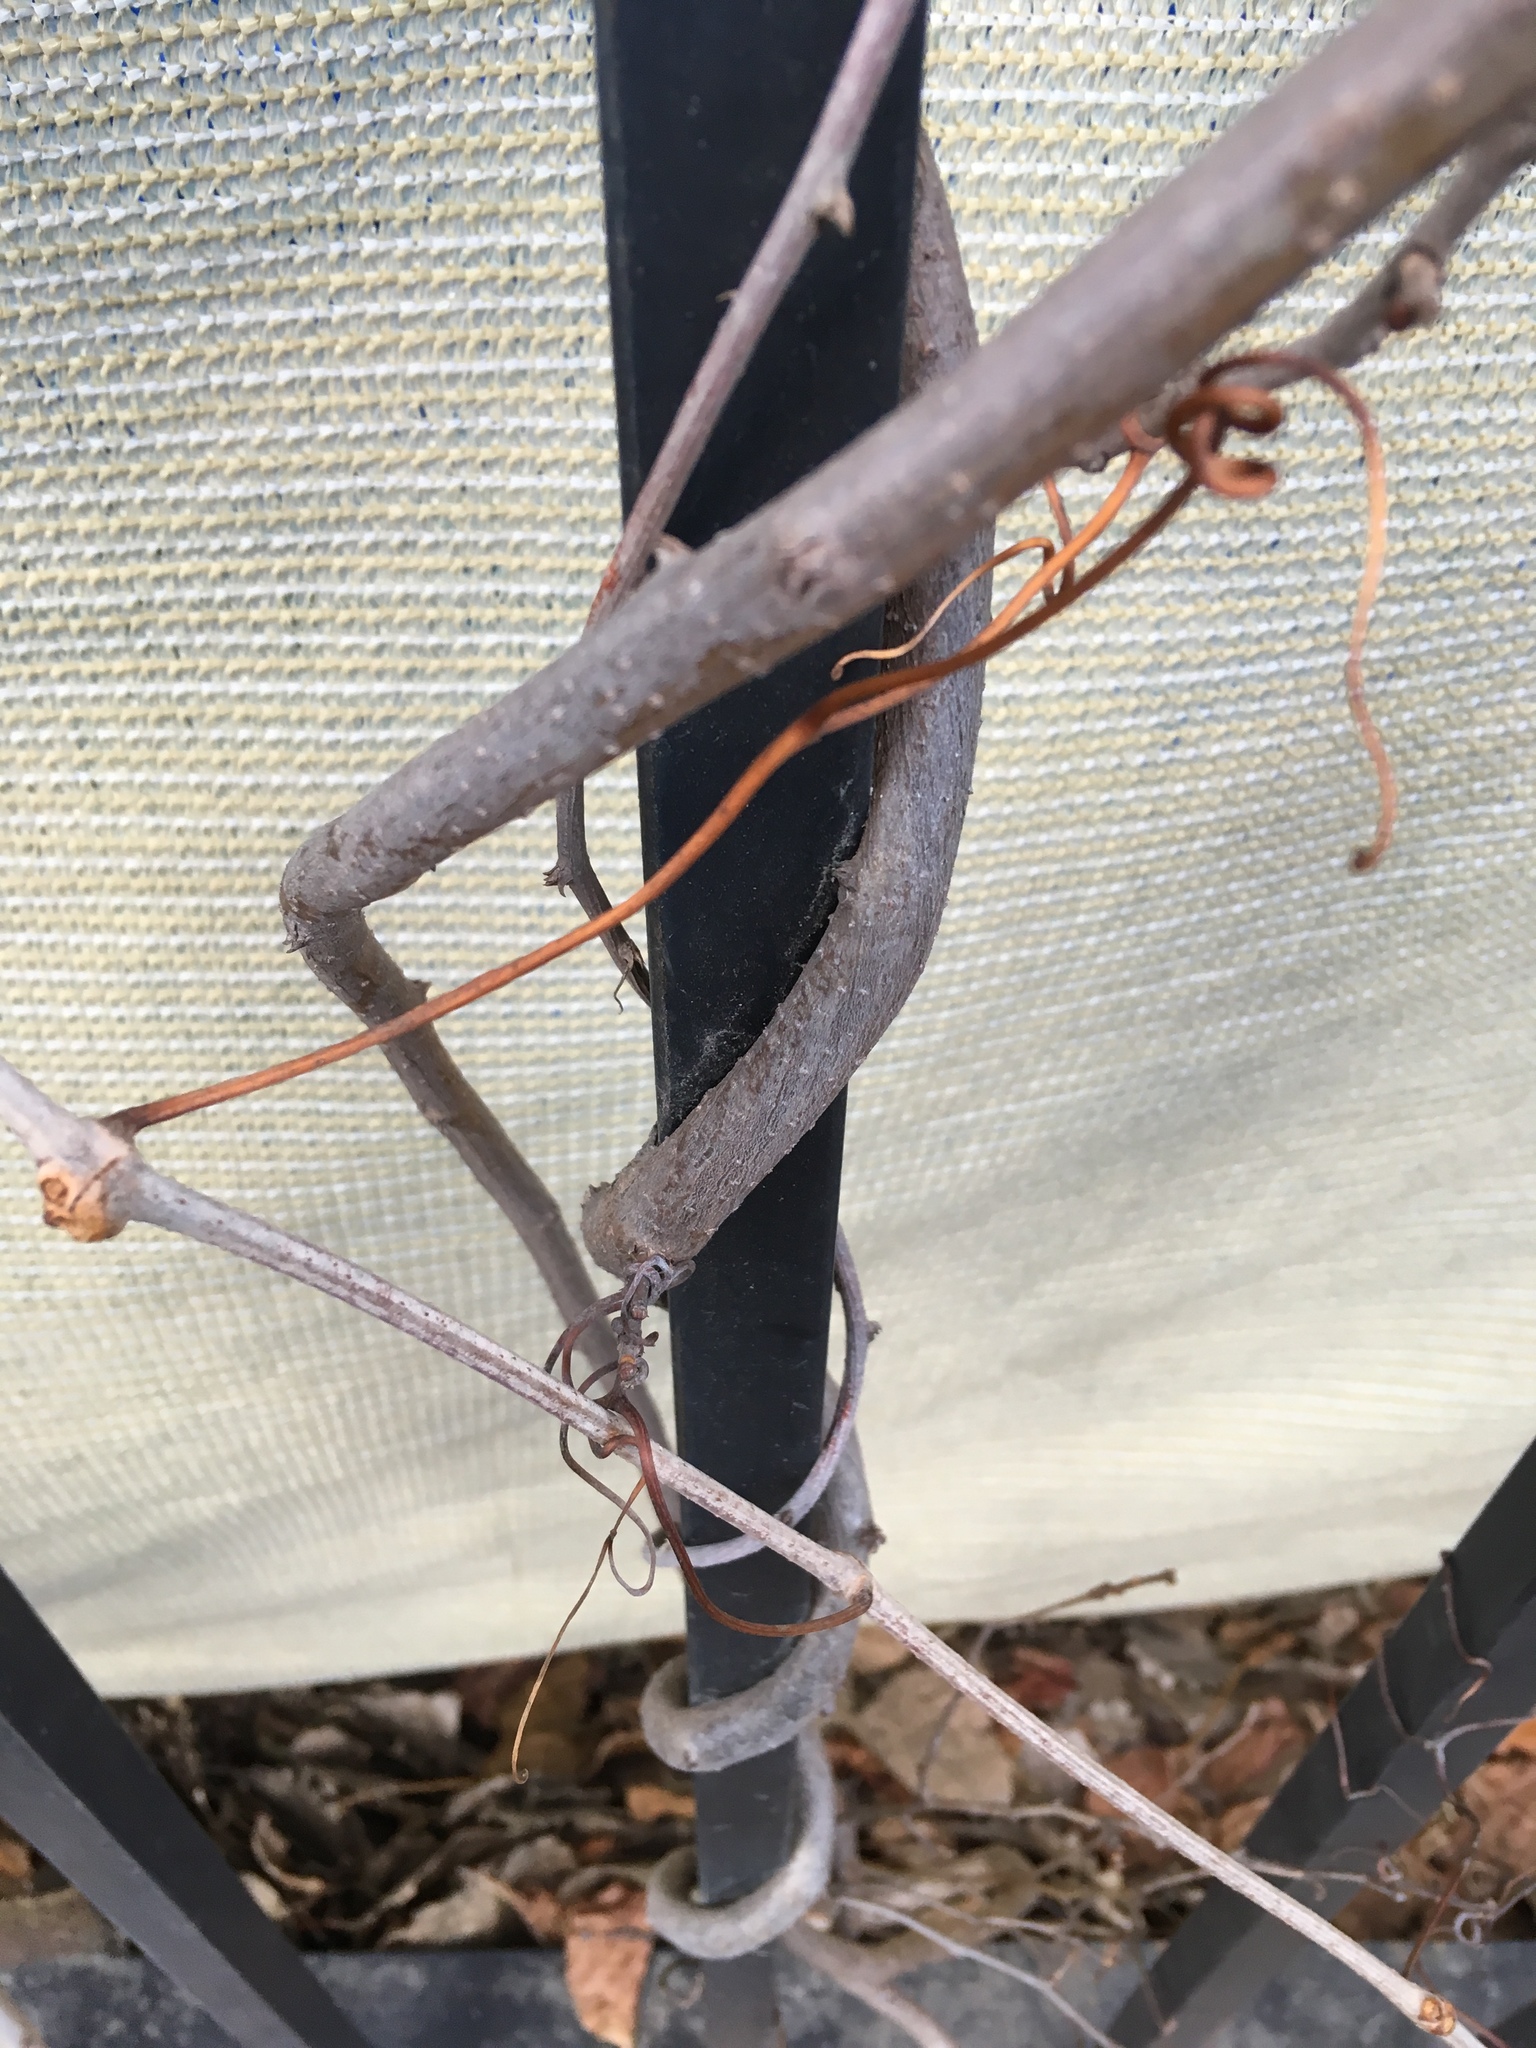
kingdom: Plantae
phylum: Tracheophyta
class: Magnoliopsida
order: Celastrales
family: Celastraceae
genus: Celastrus
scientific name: Celastrus orbiculatus
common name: Oriental bittersweet
